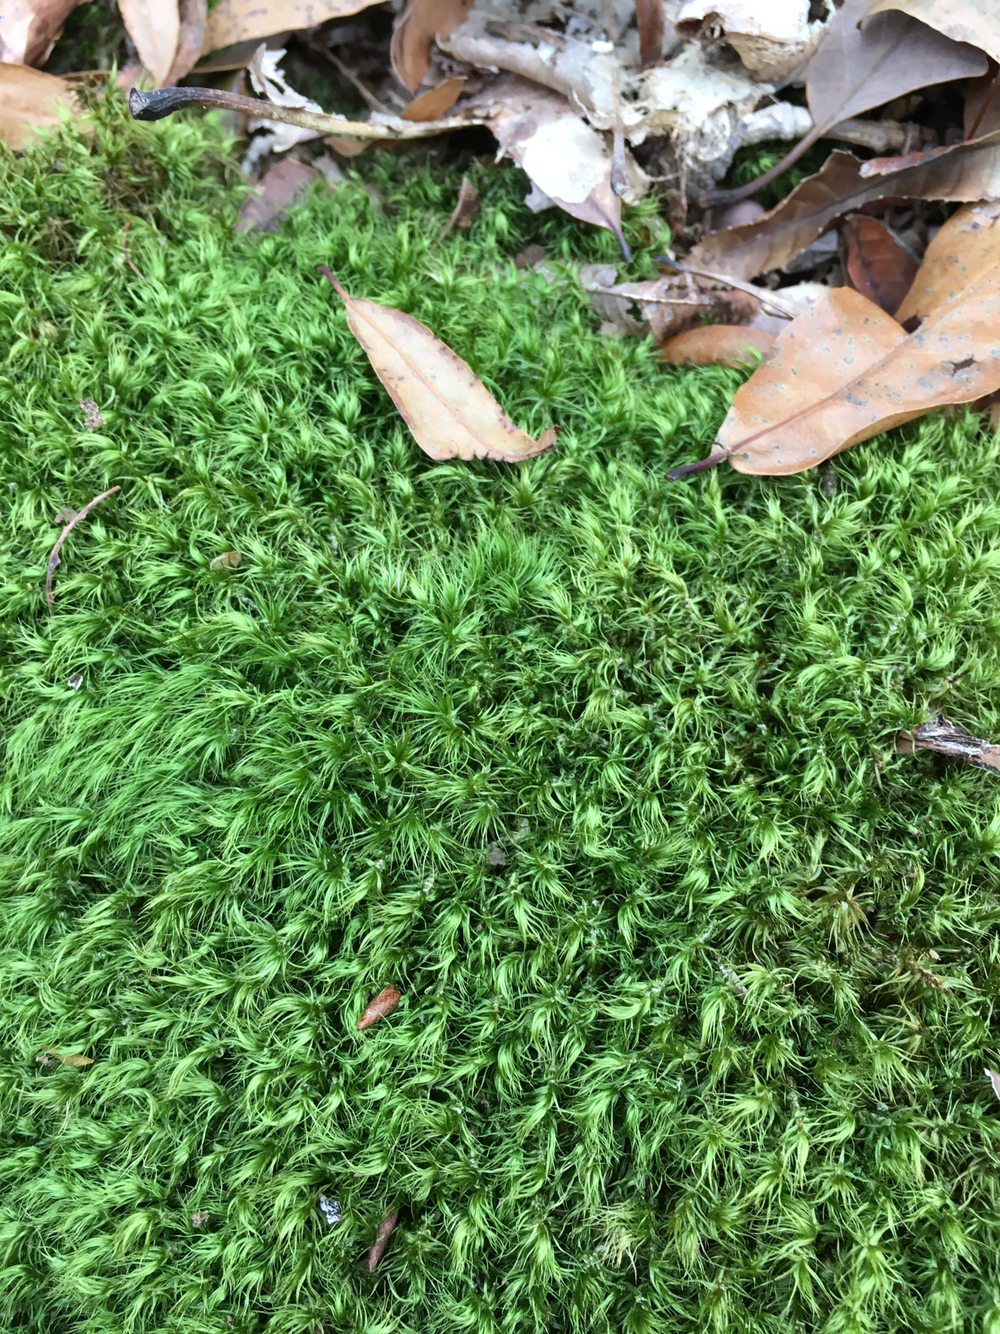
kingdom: Plantae
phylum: Bryophyta
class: Bryopsida
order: Dicranales
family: Dicranaceae
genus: Dicranum
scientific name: Dicranum scoparium
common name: Broom fork-moss
